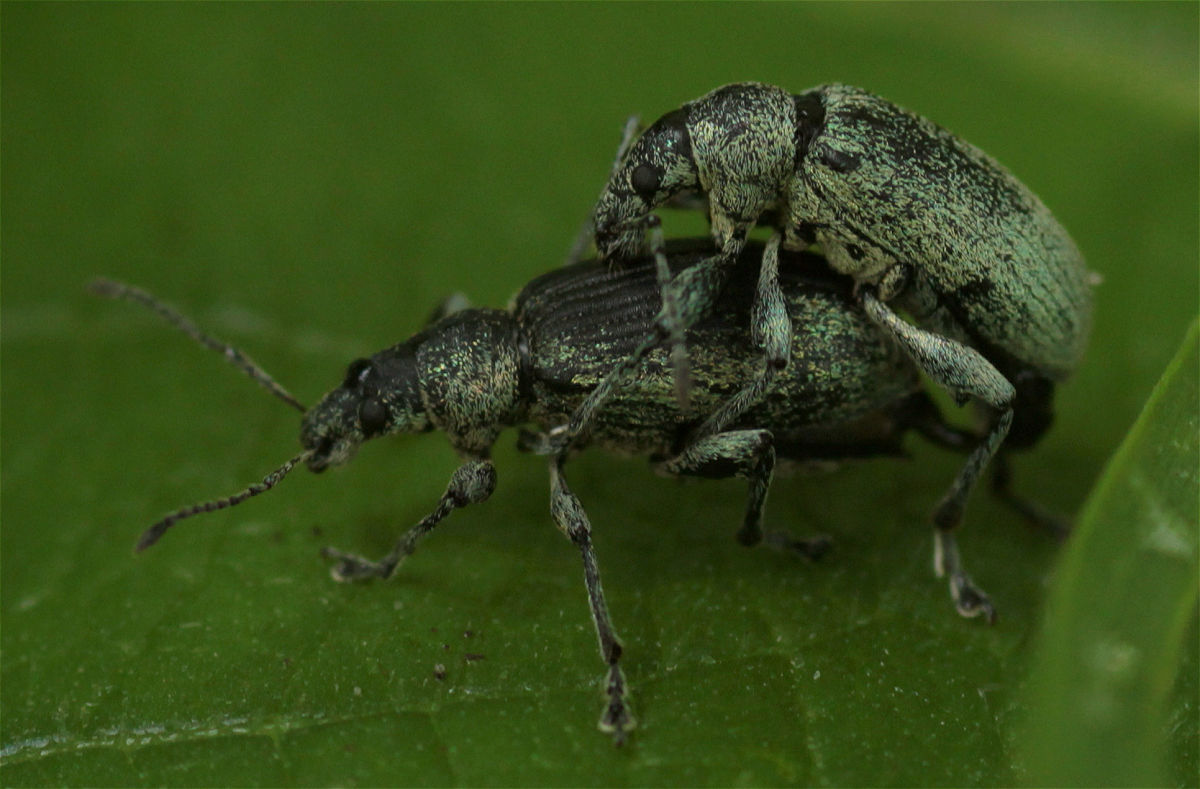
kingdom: Animalia
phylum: Arthropoda
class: Insecta
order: Coleoptera
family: Curculionidae
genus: Phyllobius
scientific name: Phyllobius pomaceus
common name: Green nettle weevil
